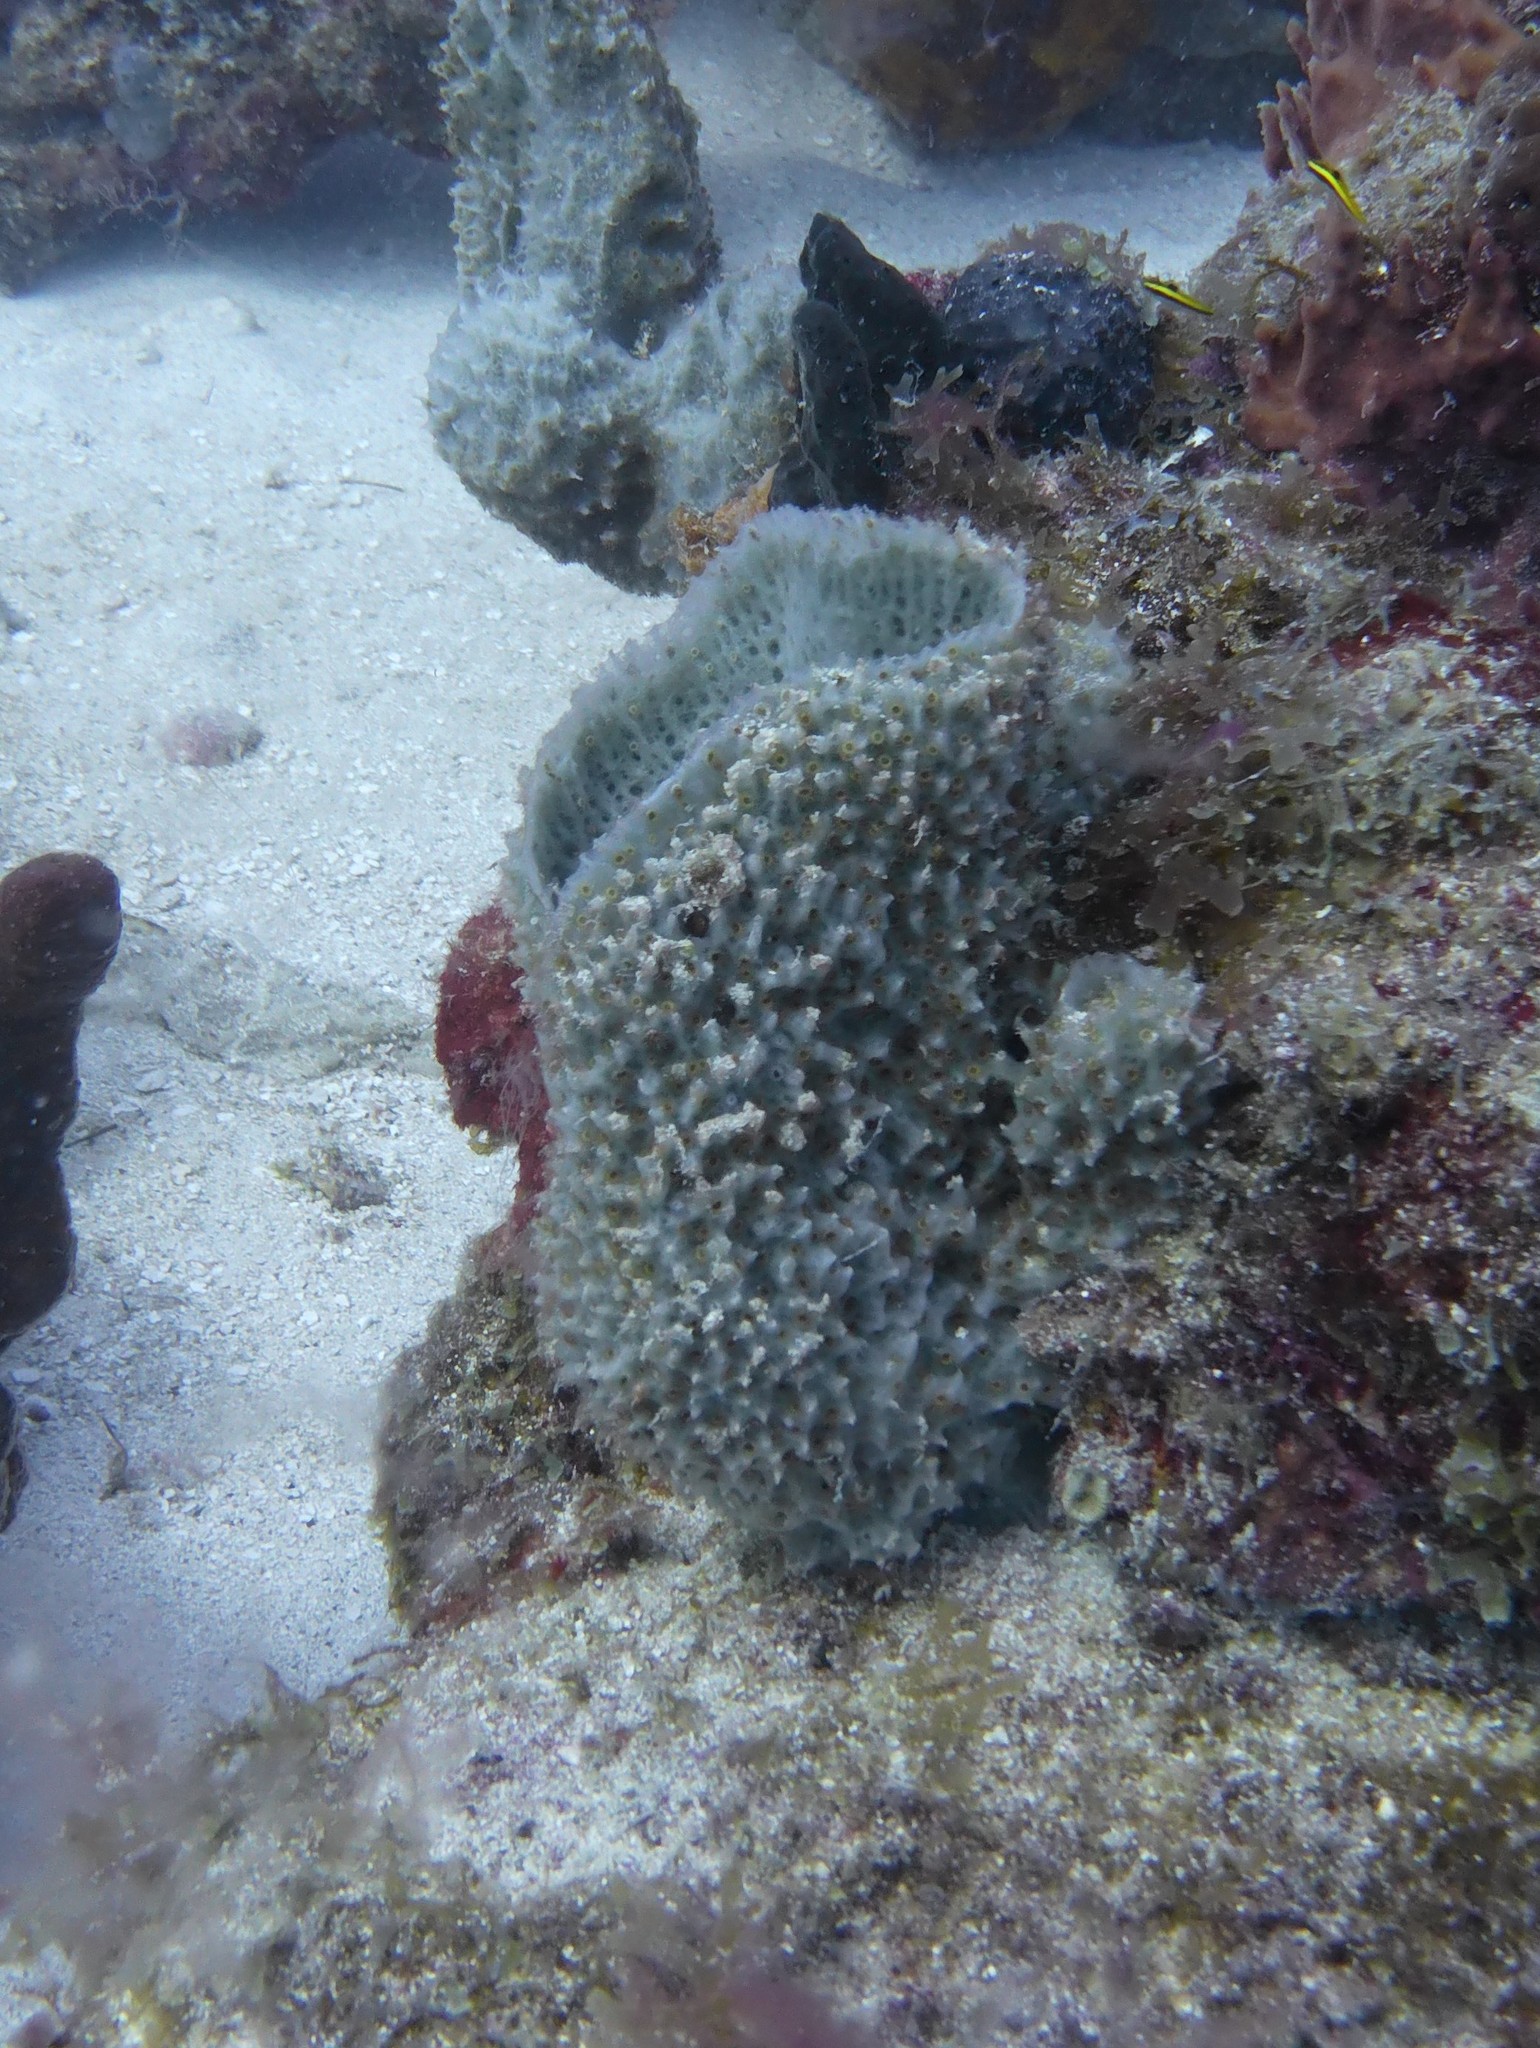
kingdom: Animalia
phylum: Porifera
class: Demospongiae
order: Haplosclerida
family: Niphatidae
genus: Niphates
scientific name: Niphates digitalis
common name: Pink vase sponge
